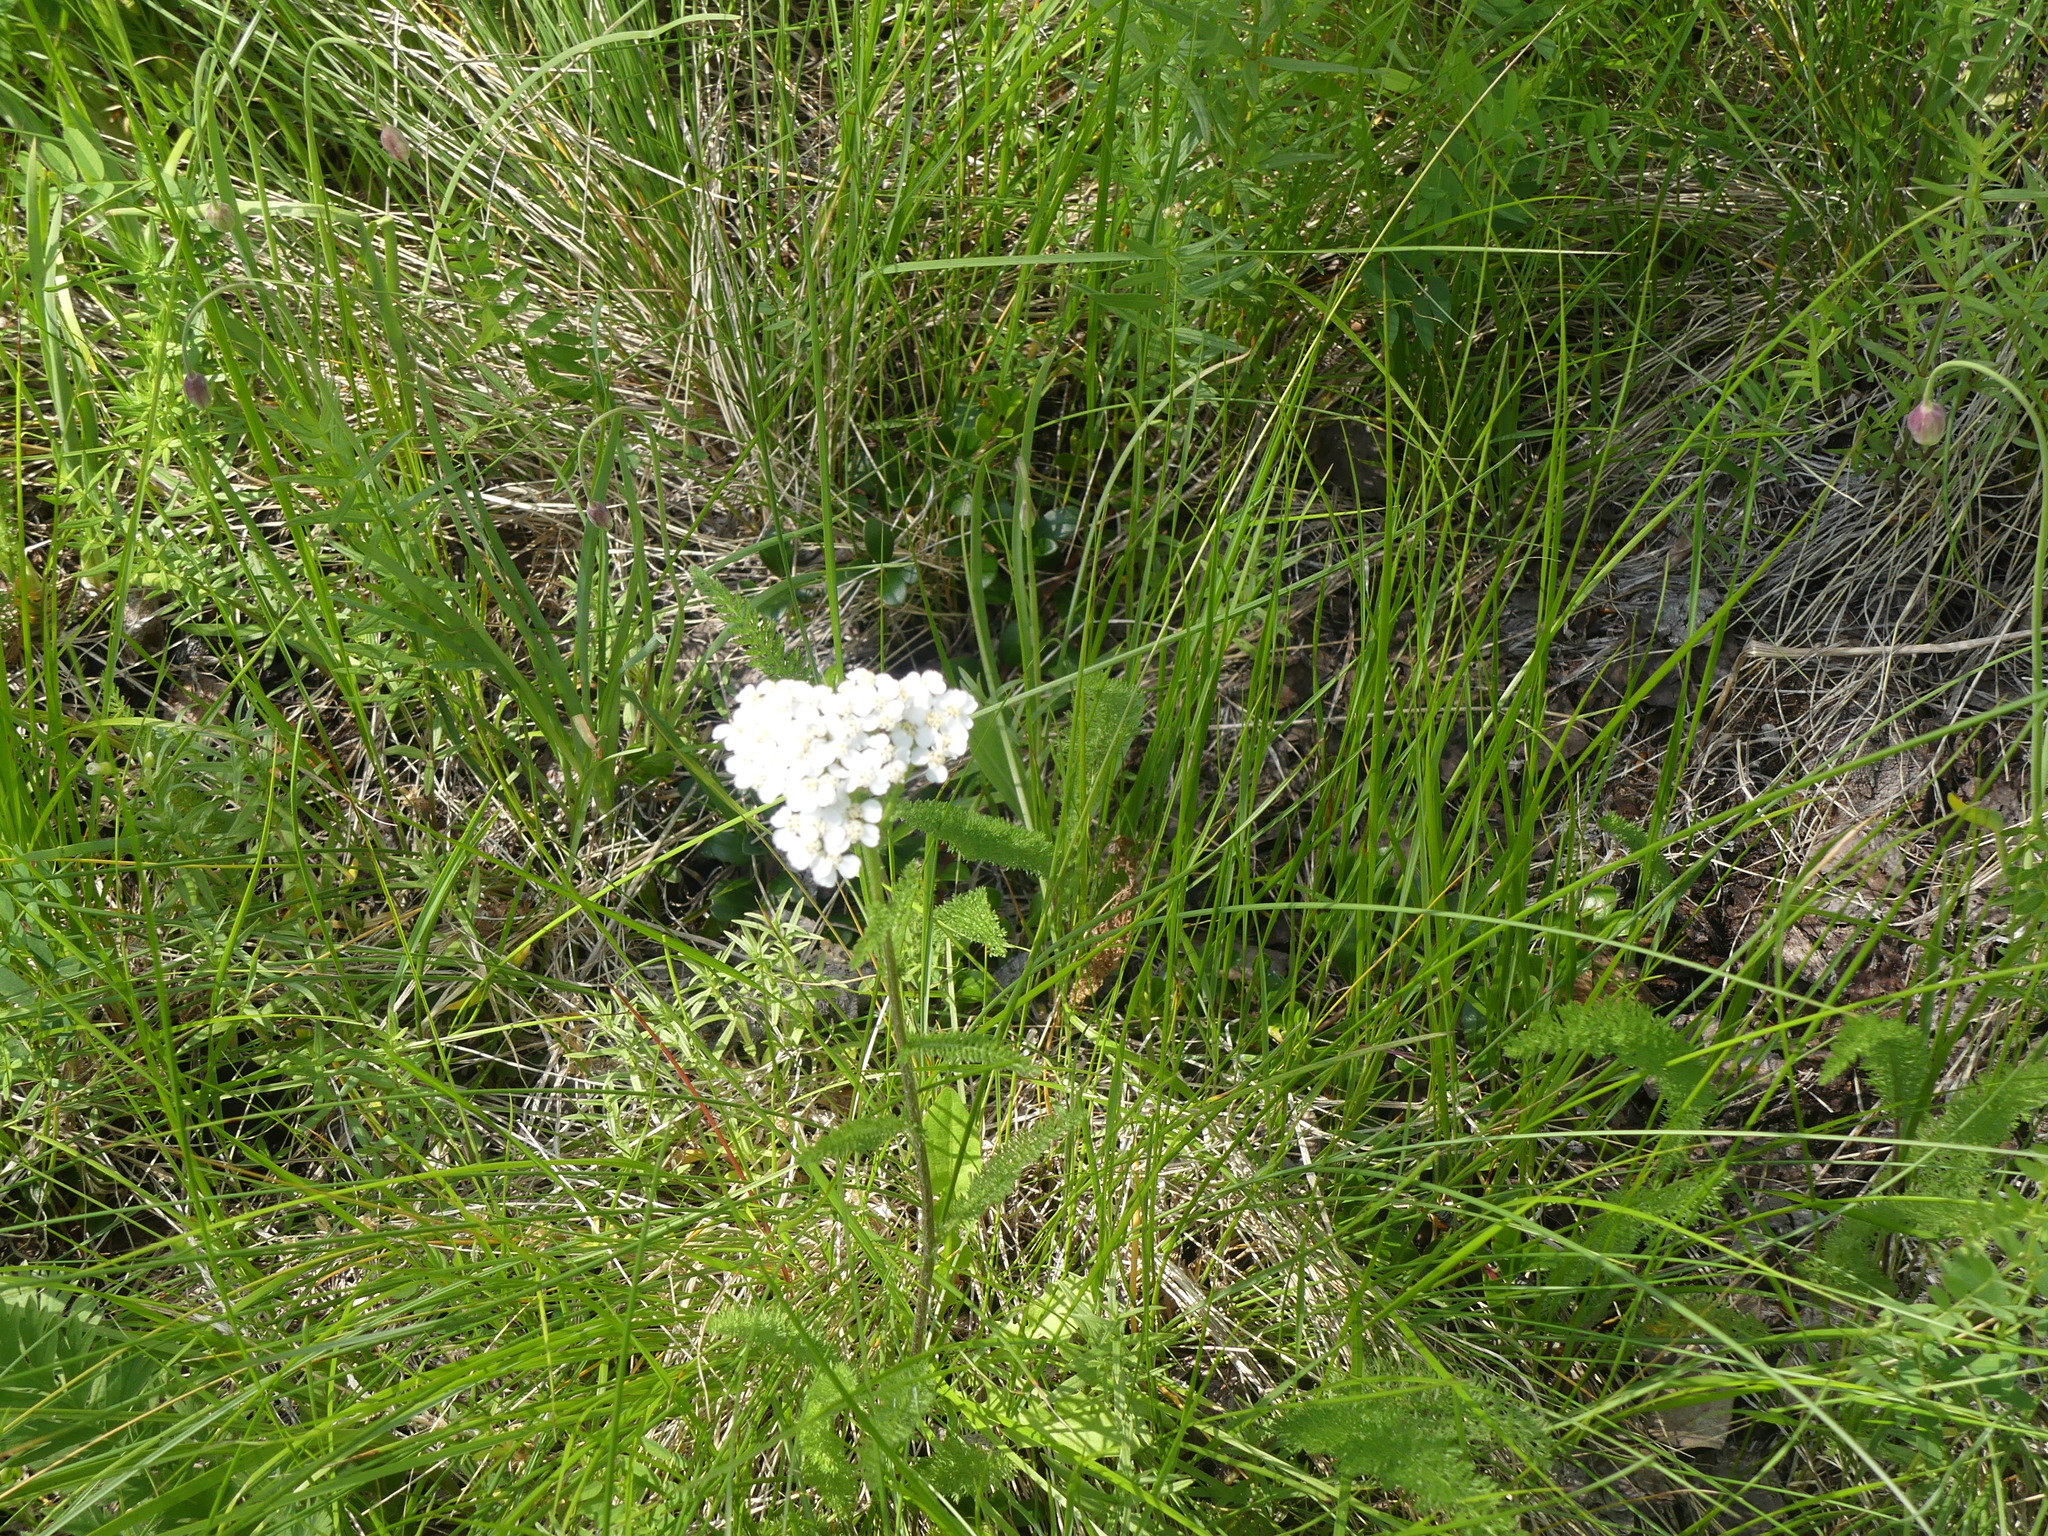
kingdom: Plantae
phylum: Tracheophyta
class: Magnoliopsida
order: Asterales
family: Asteraceae
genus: Achillea
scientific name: Achillea millefolium
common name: Yarrow
